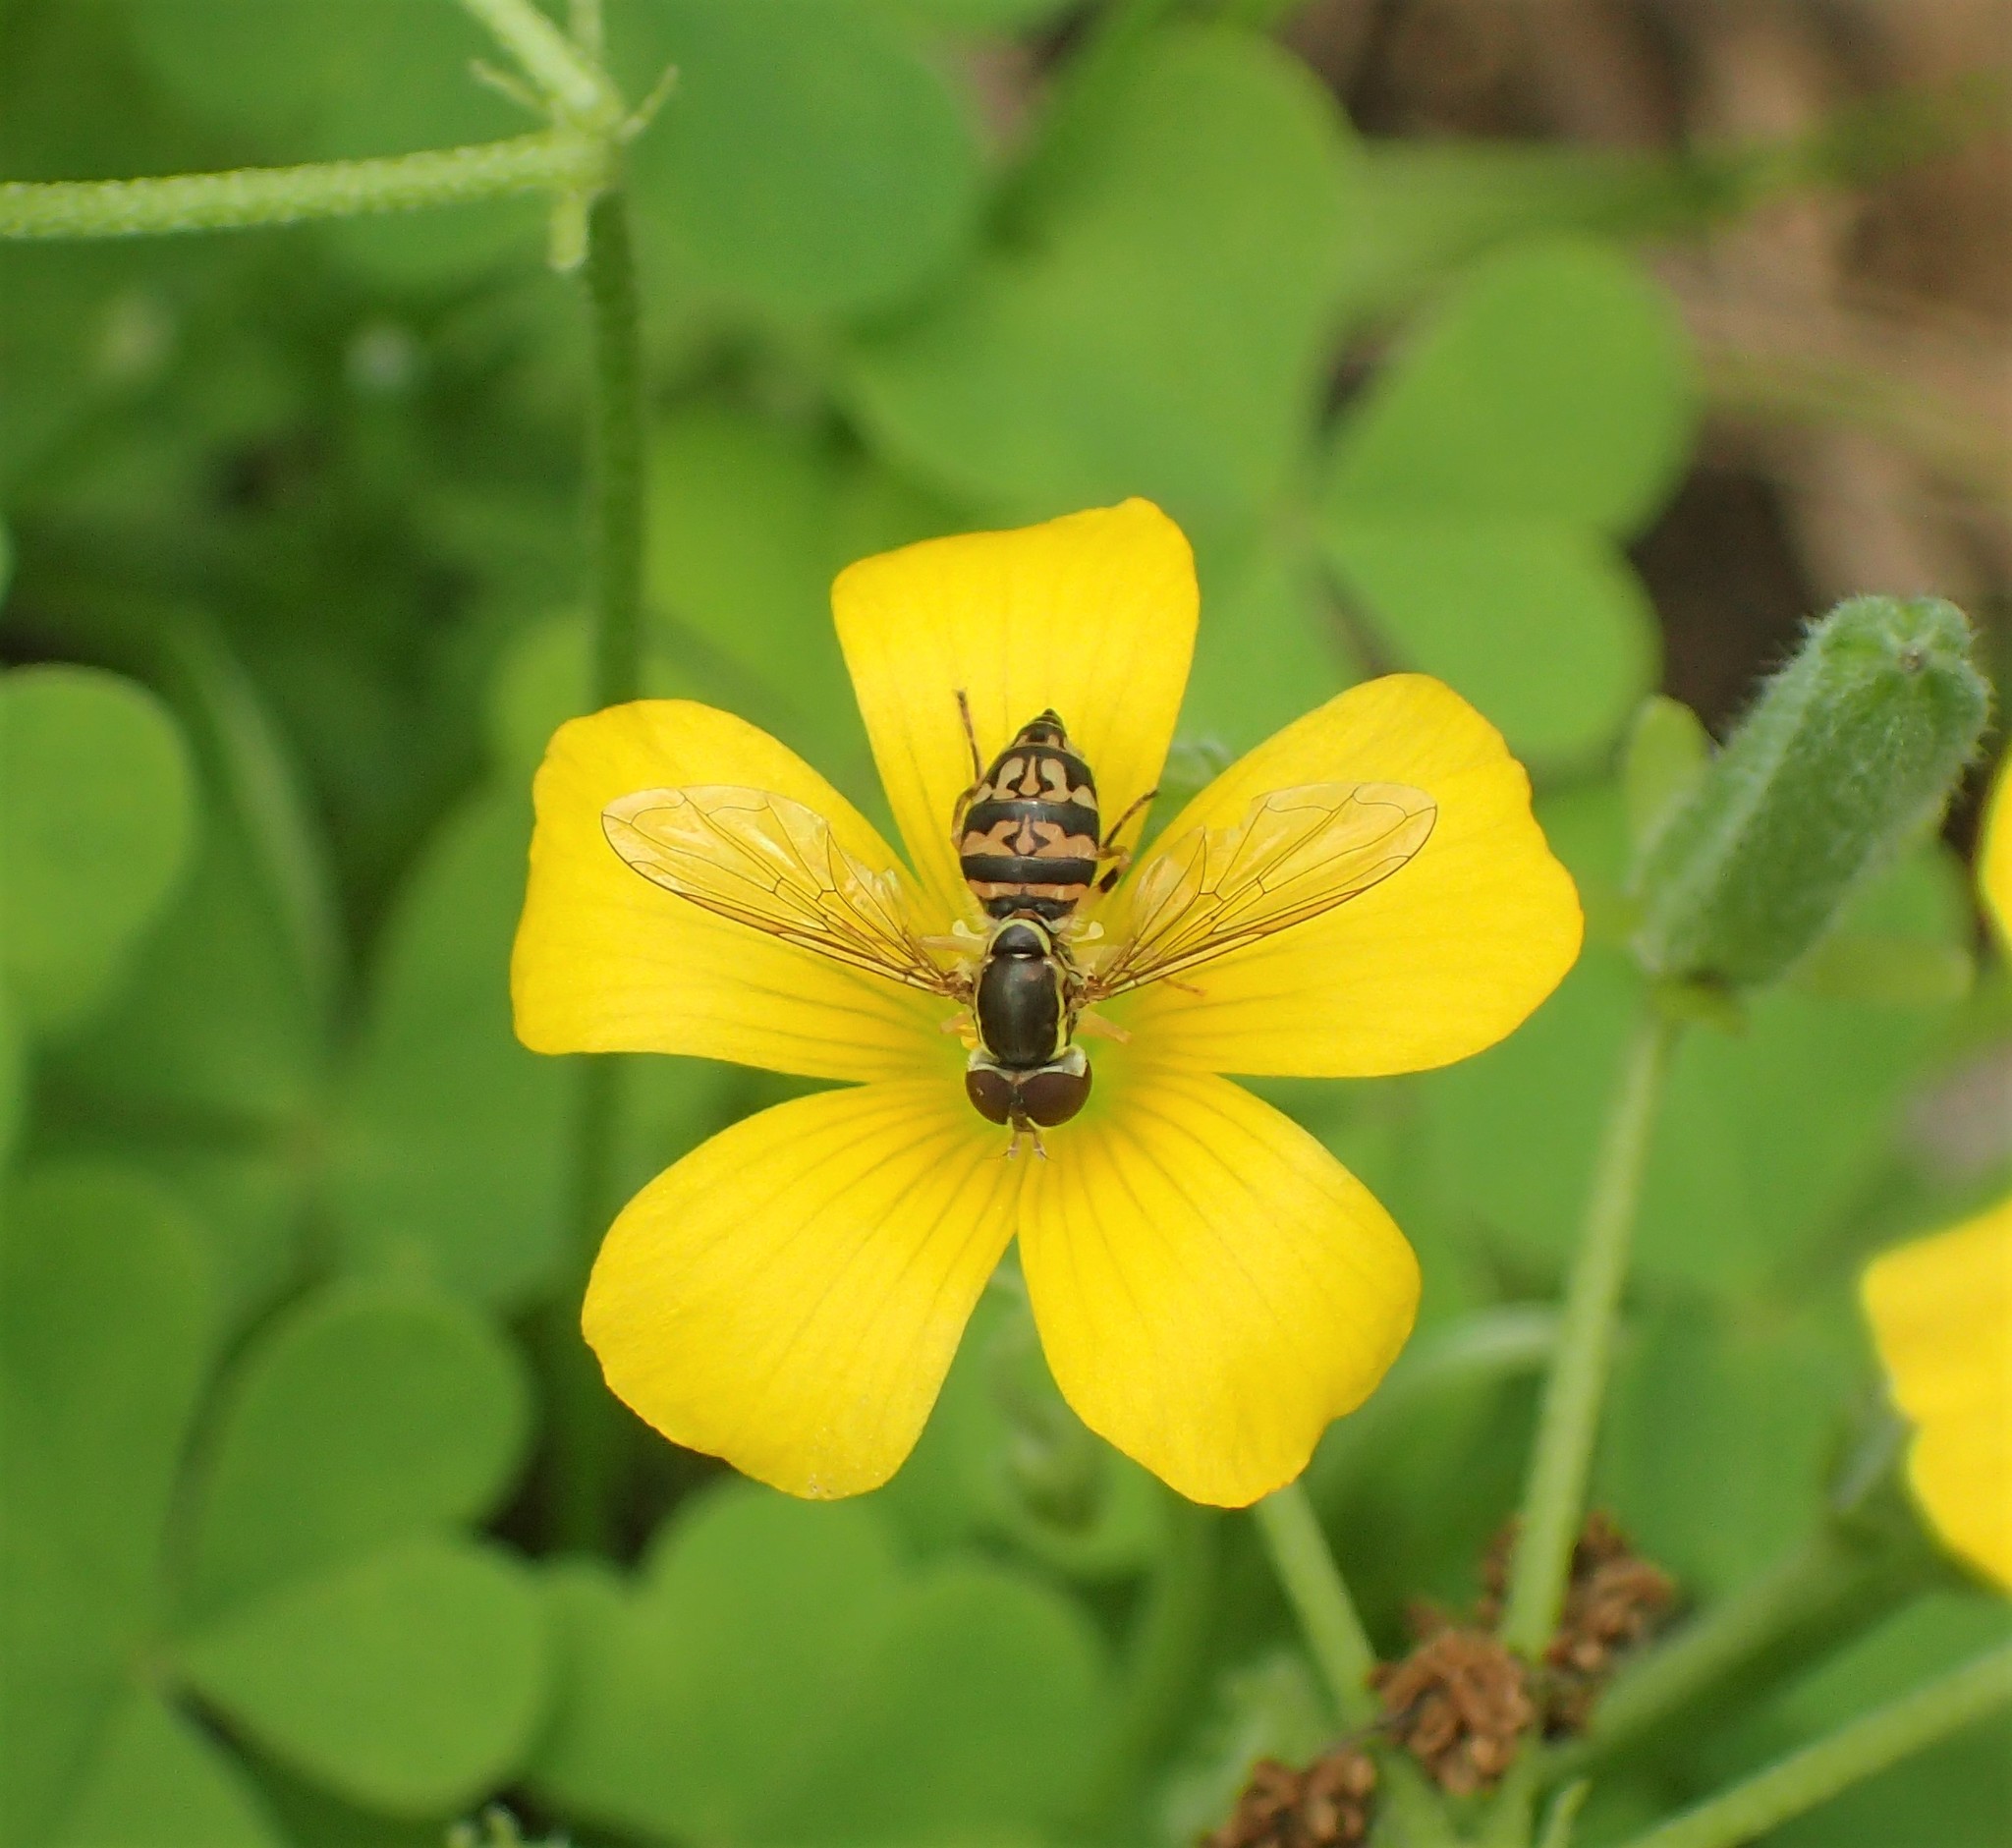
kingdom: Animalia
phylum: Arthropoda
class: Insecta
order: Diptera
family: Syrphidae
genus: Toxomerus
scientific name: Toxomerus geminatus
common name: Eastern calligrapher
